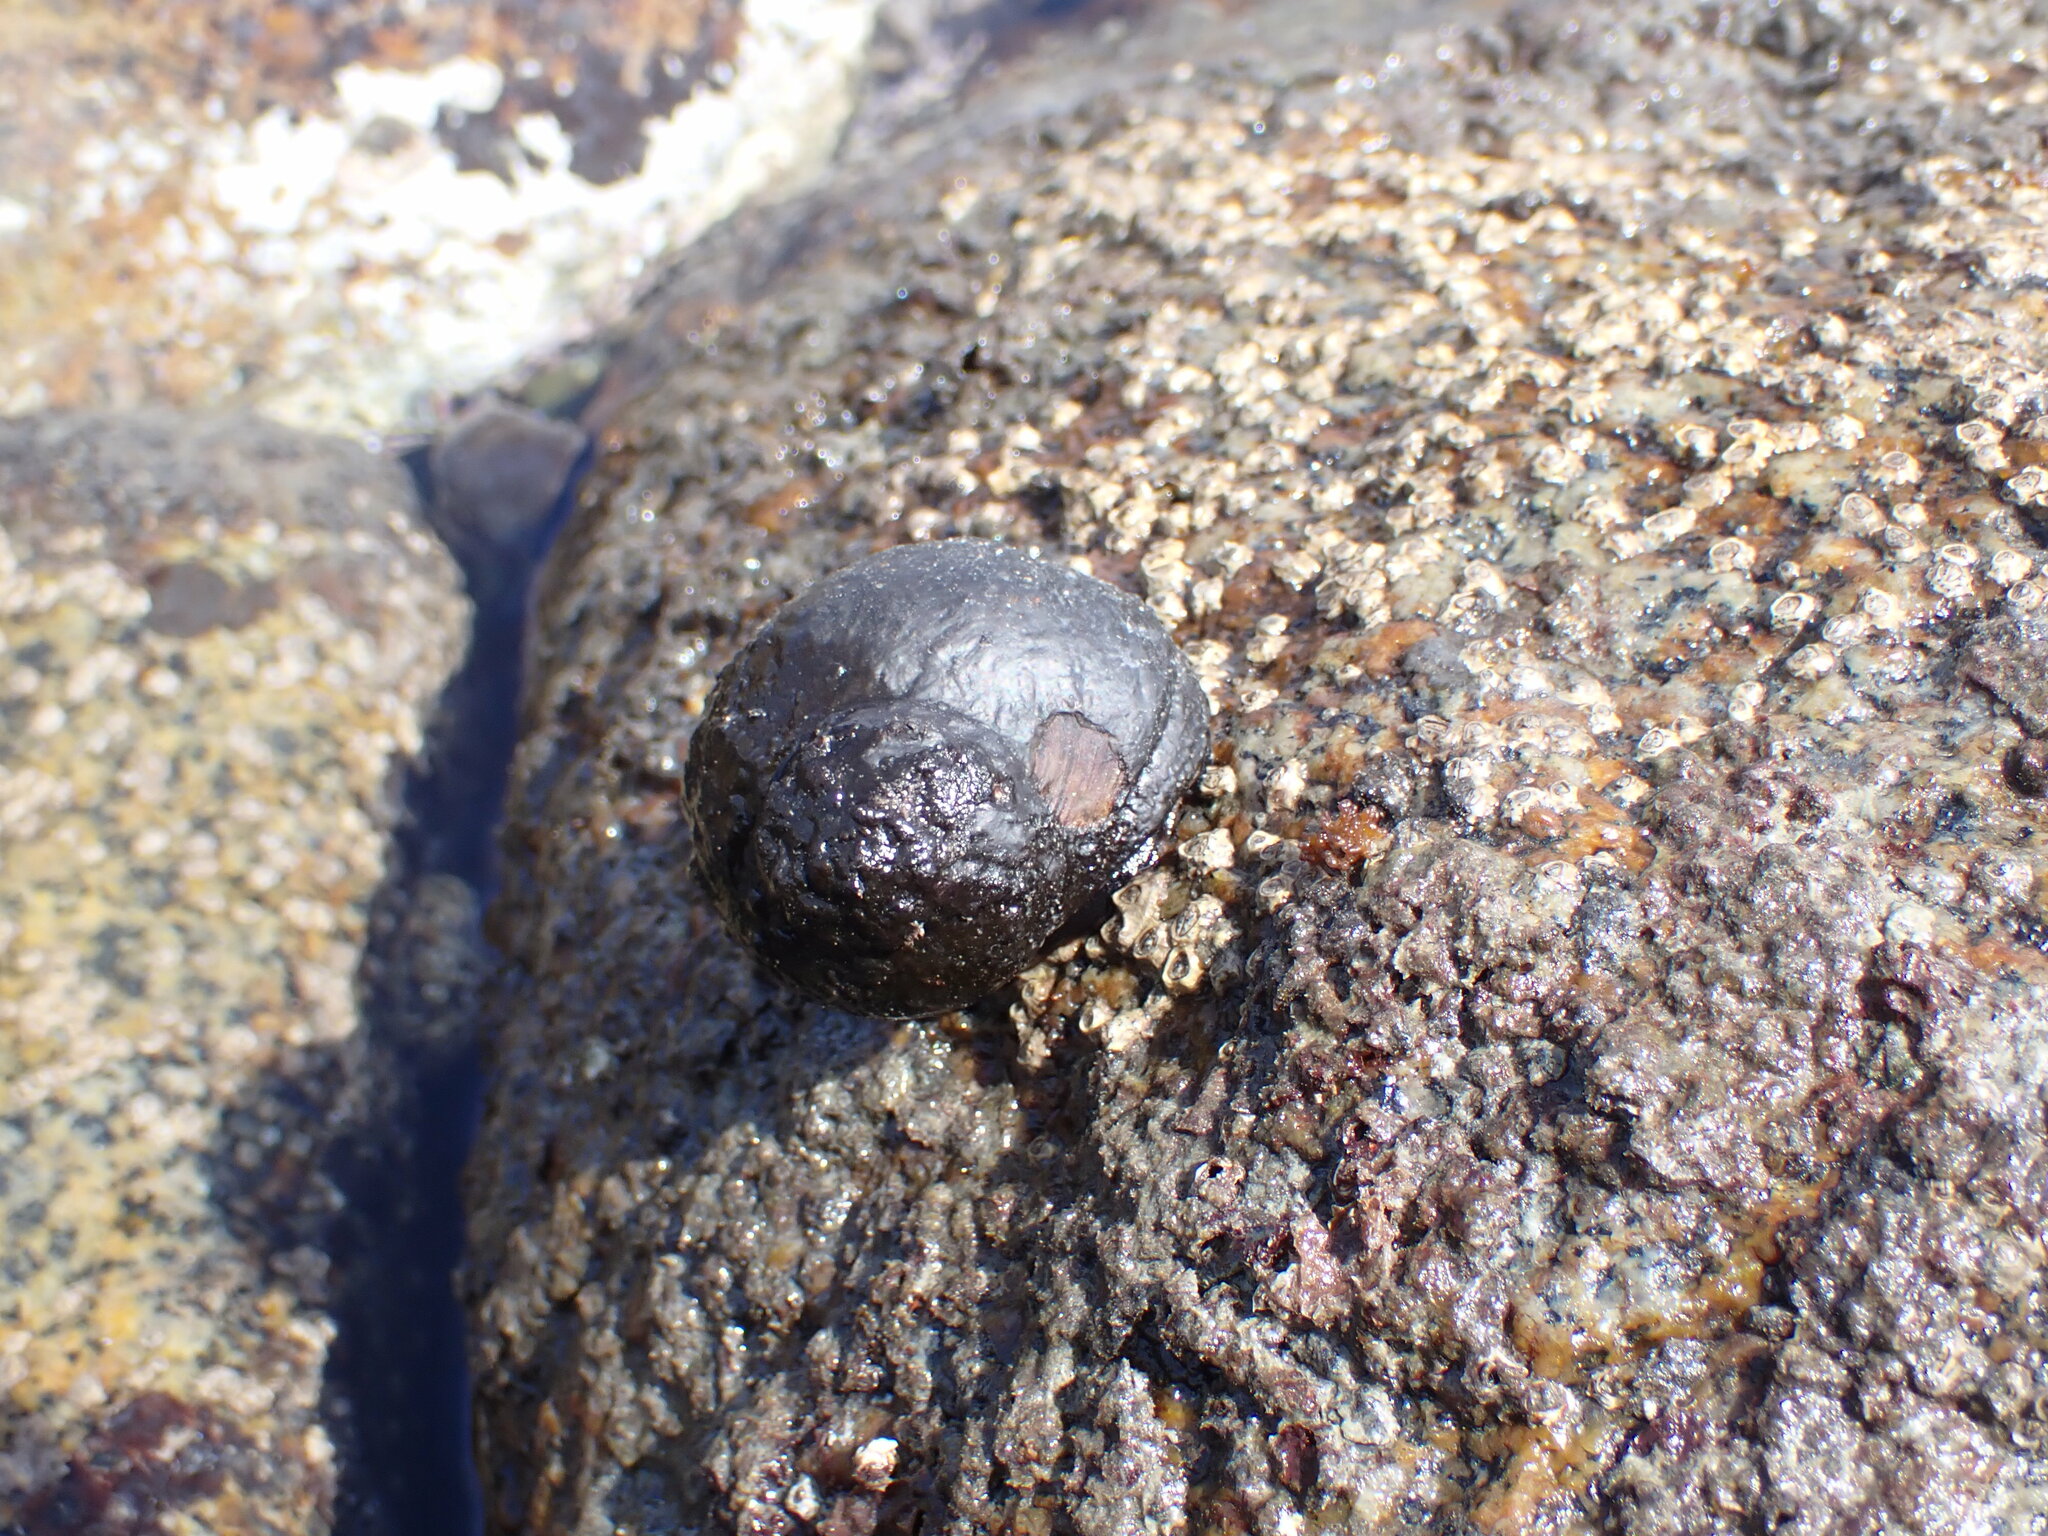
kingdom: Animalia
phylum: Mollusca
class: Gastropoda
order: Trochida
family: Turbinidae
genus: Lunella
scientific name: Lunella smaragda
